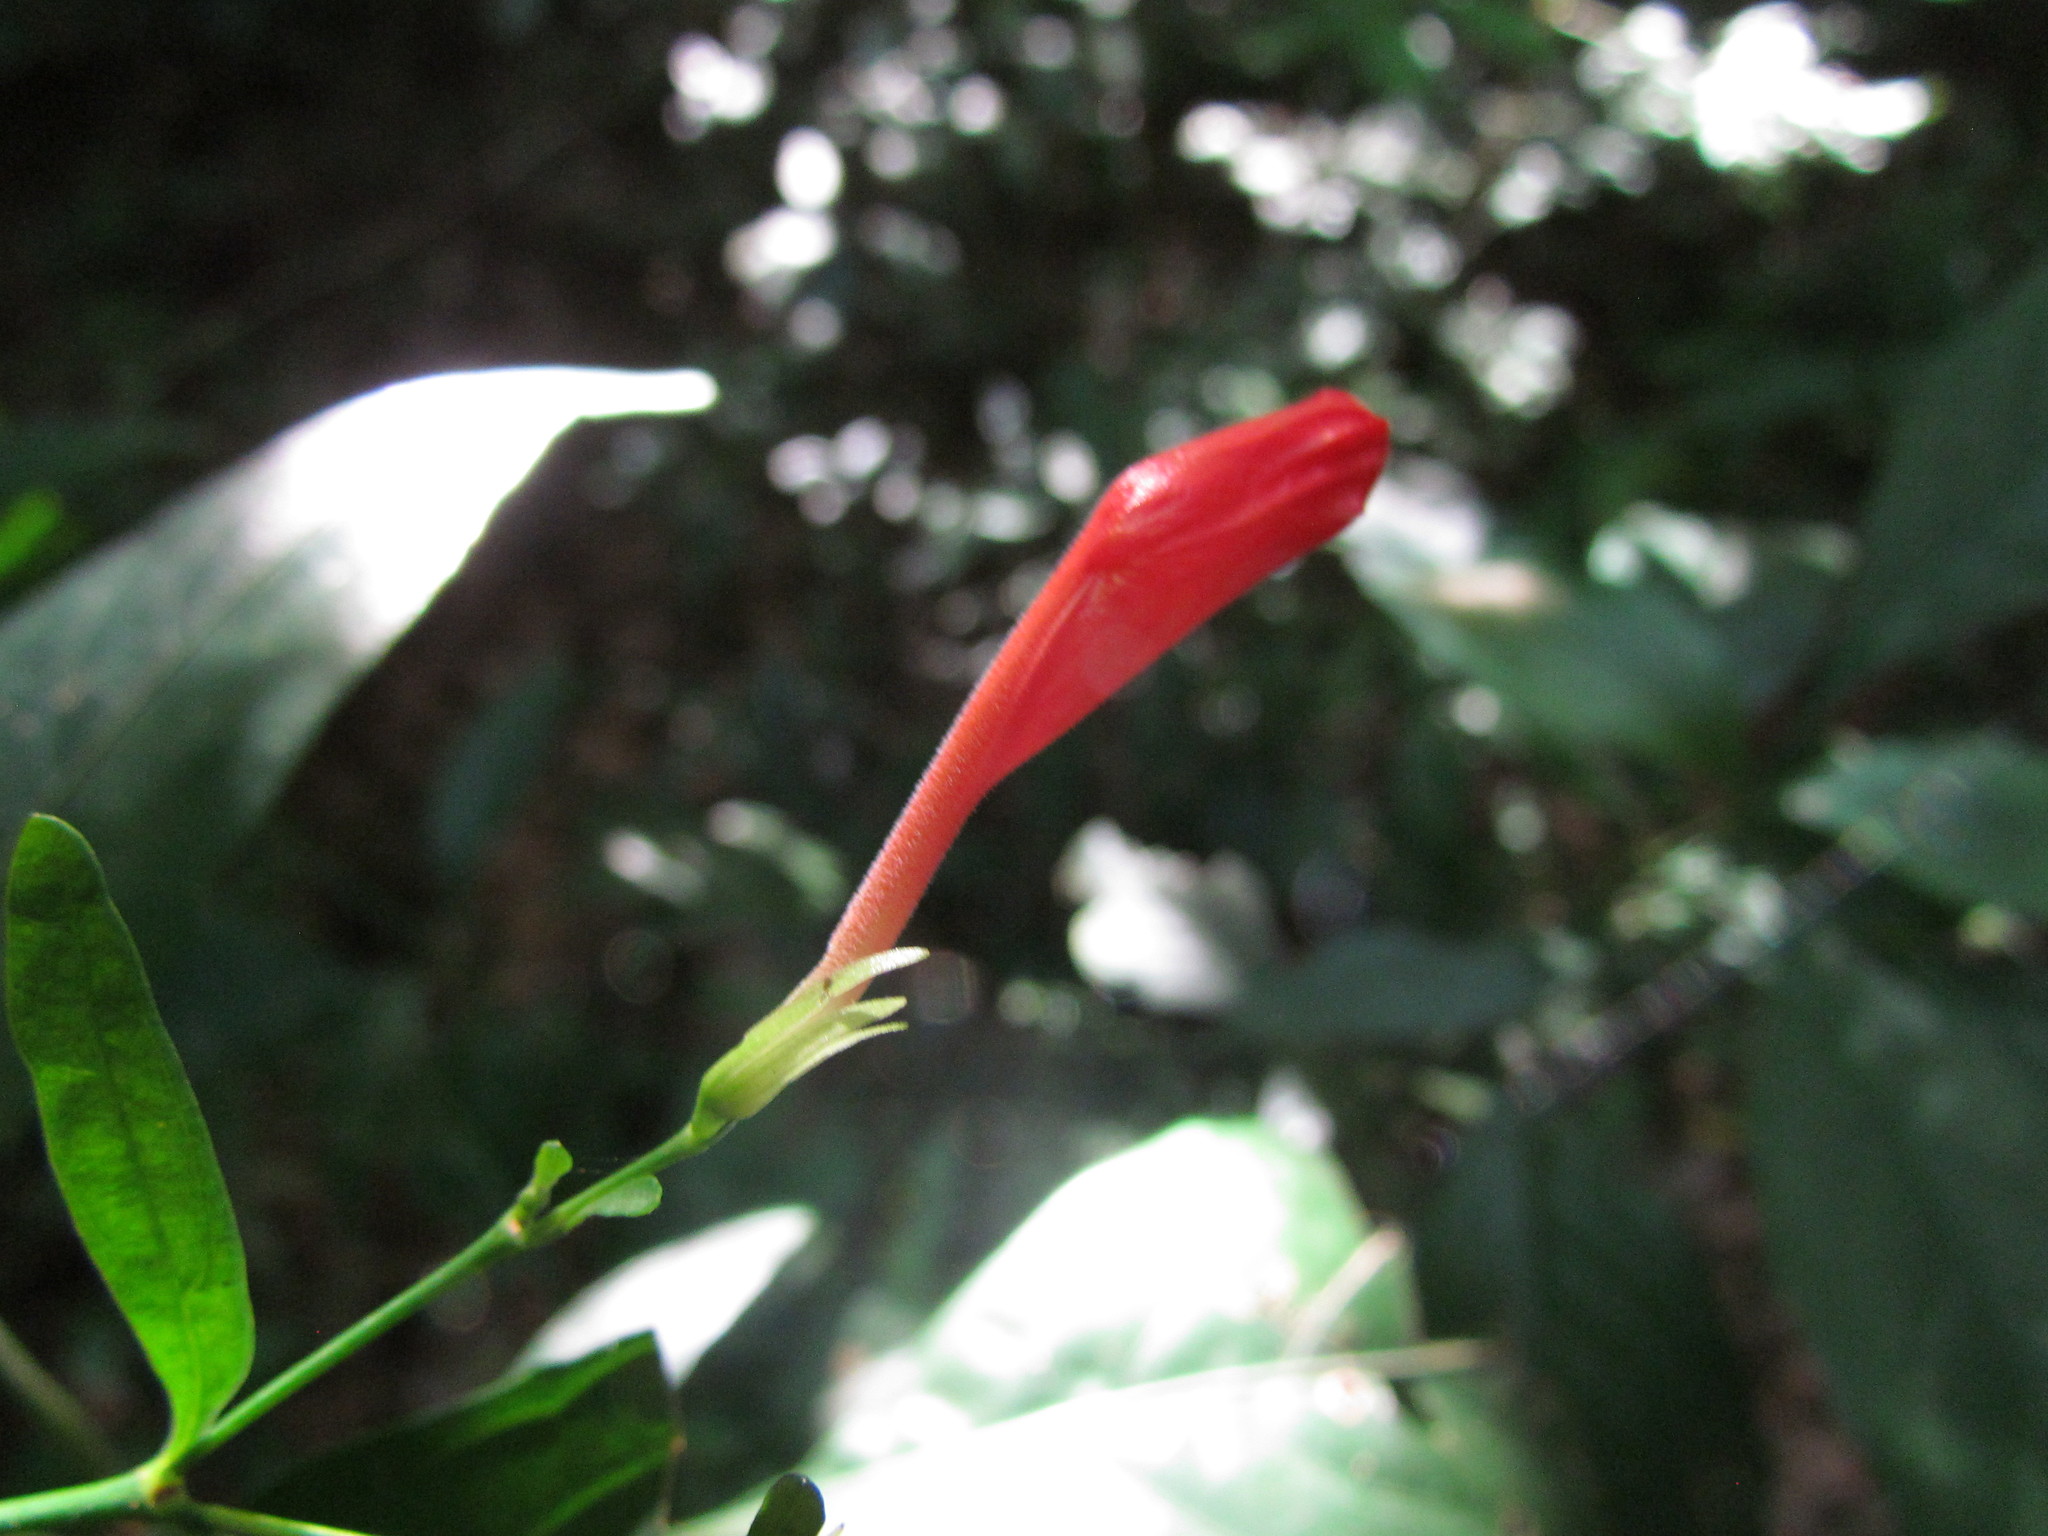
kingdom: Plantae
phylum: Tracheophyta
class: Magnoliopsida
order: Lamiales
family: Acanthaceae
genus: Ruellia
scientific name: Ruellia angustiflora
